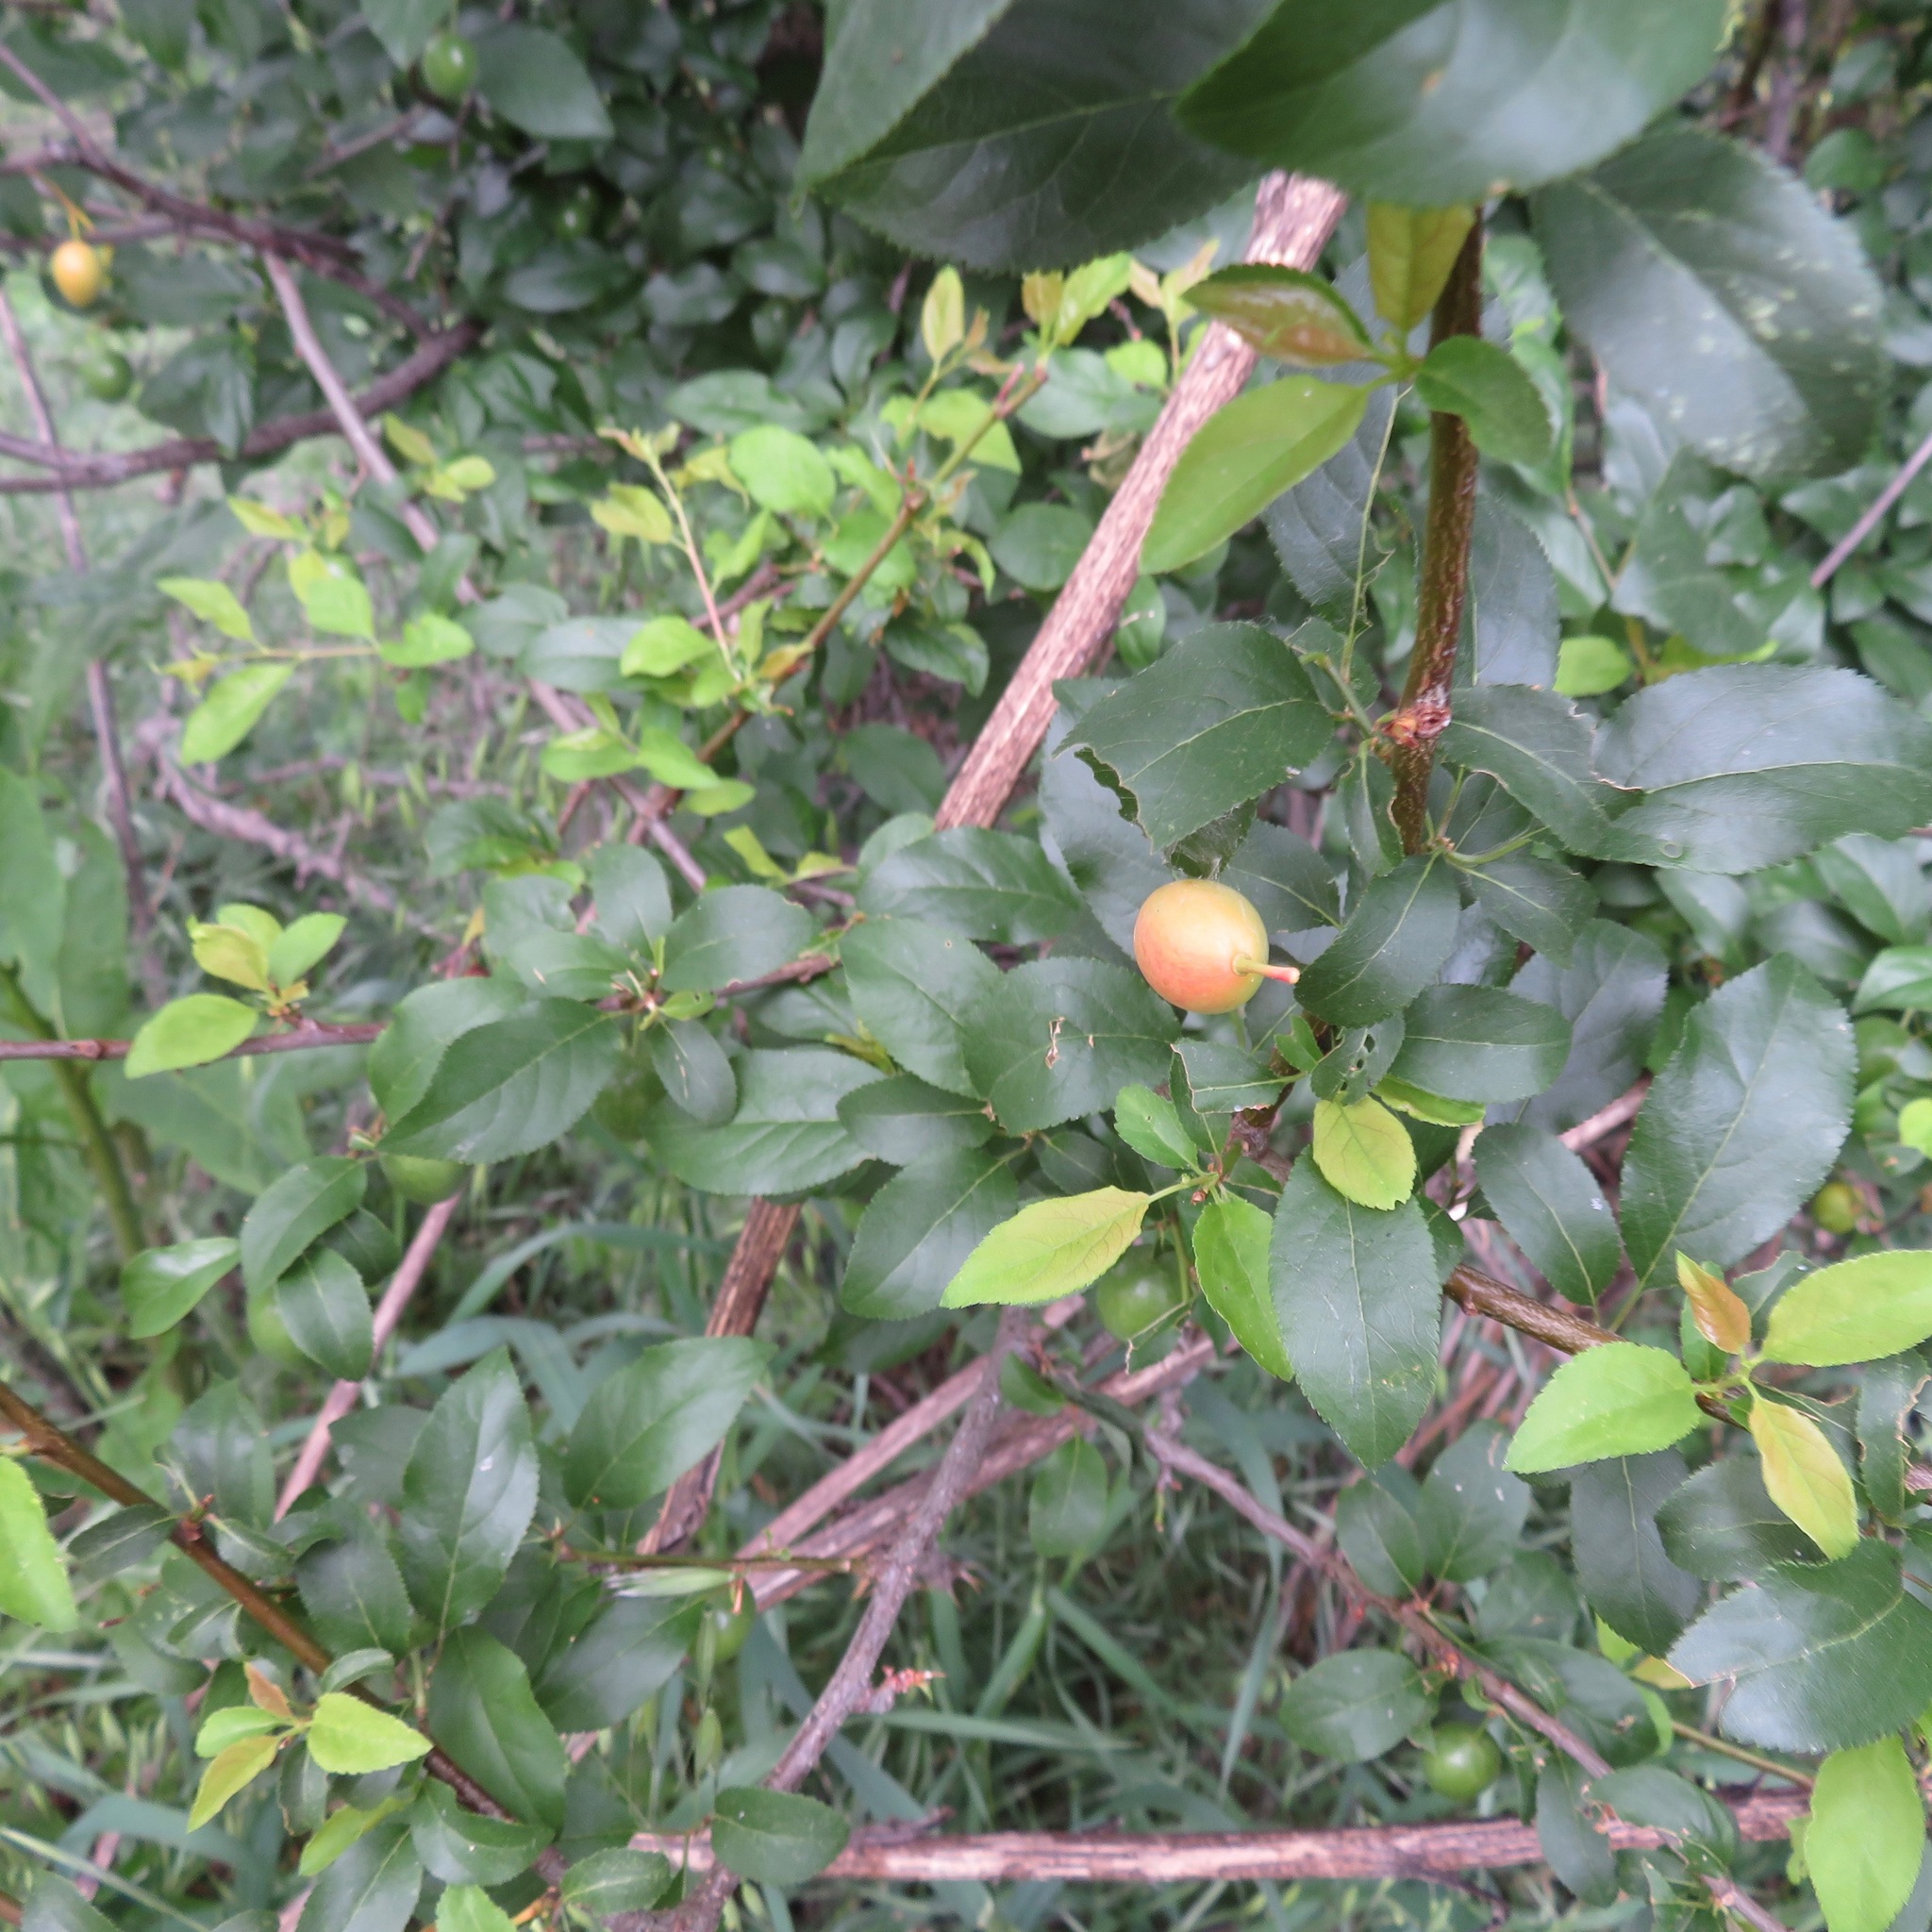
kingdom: Plantae
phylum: Tracheophyta
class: Magnoliopsida
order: Rosales
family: Rosaceae
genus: Prunus
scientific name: Prunus cerasifera
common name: Cherry plum
